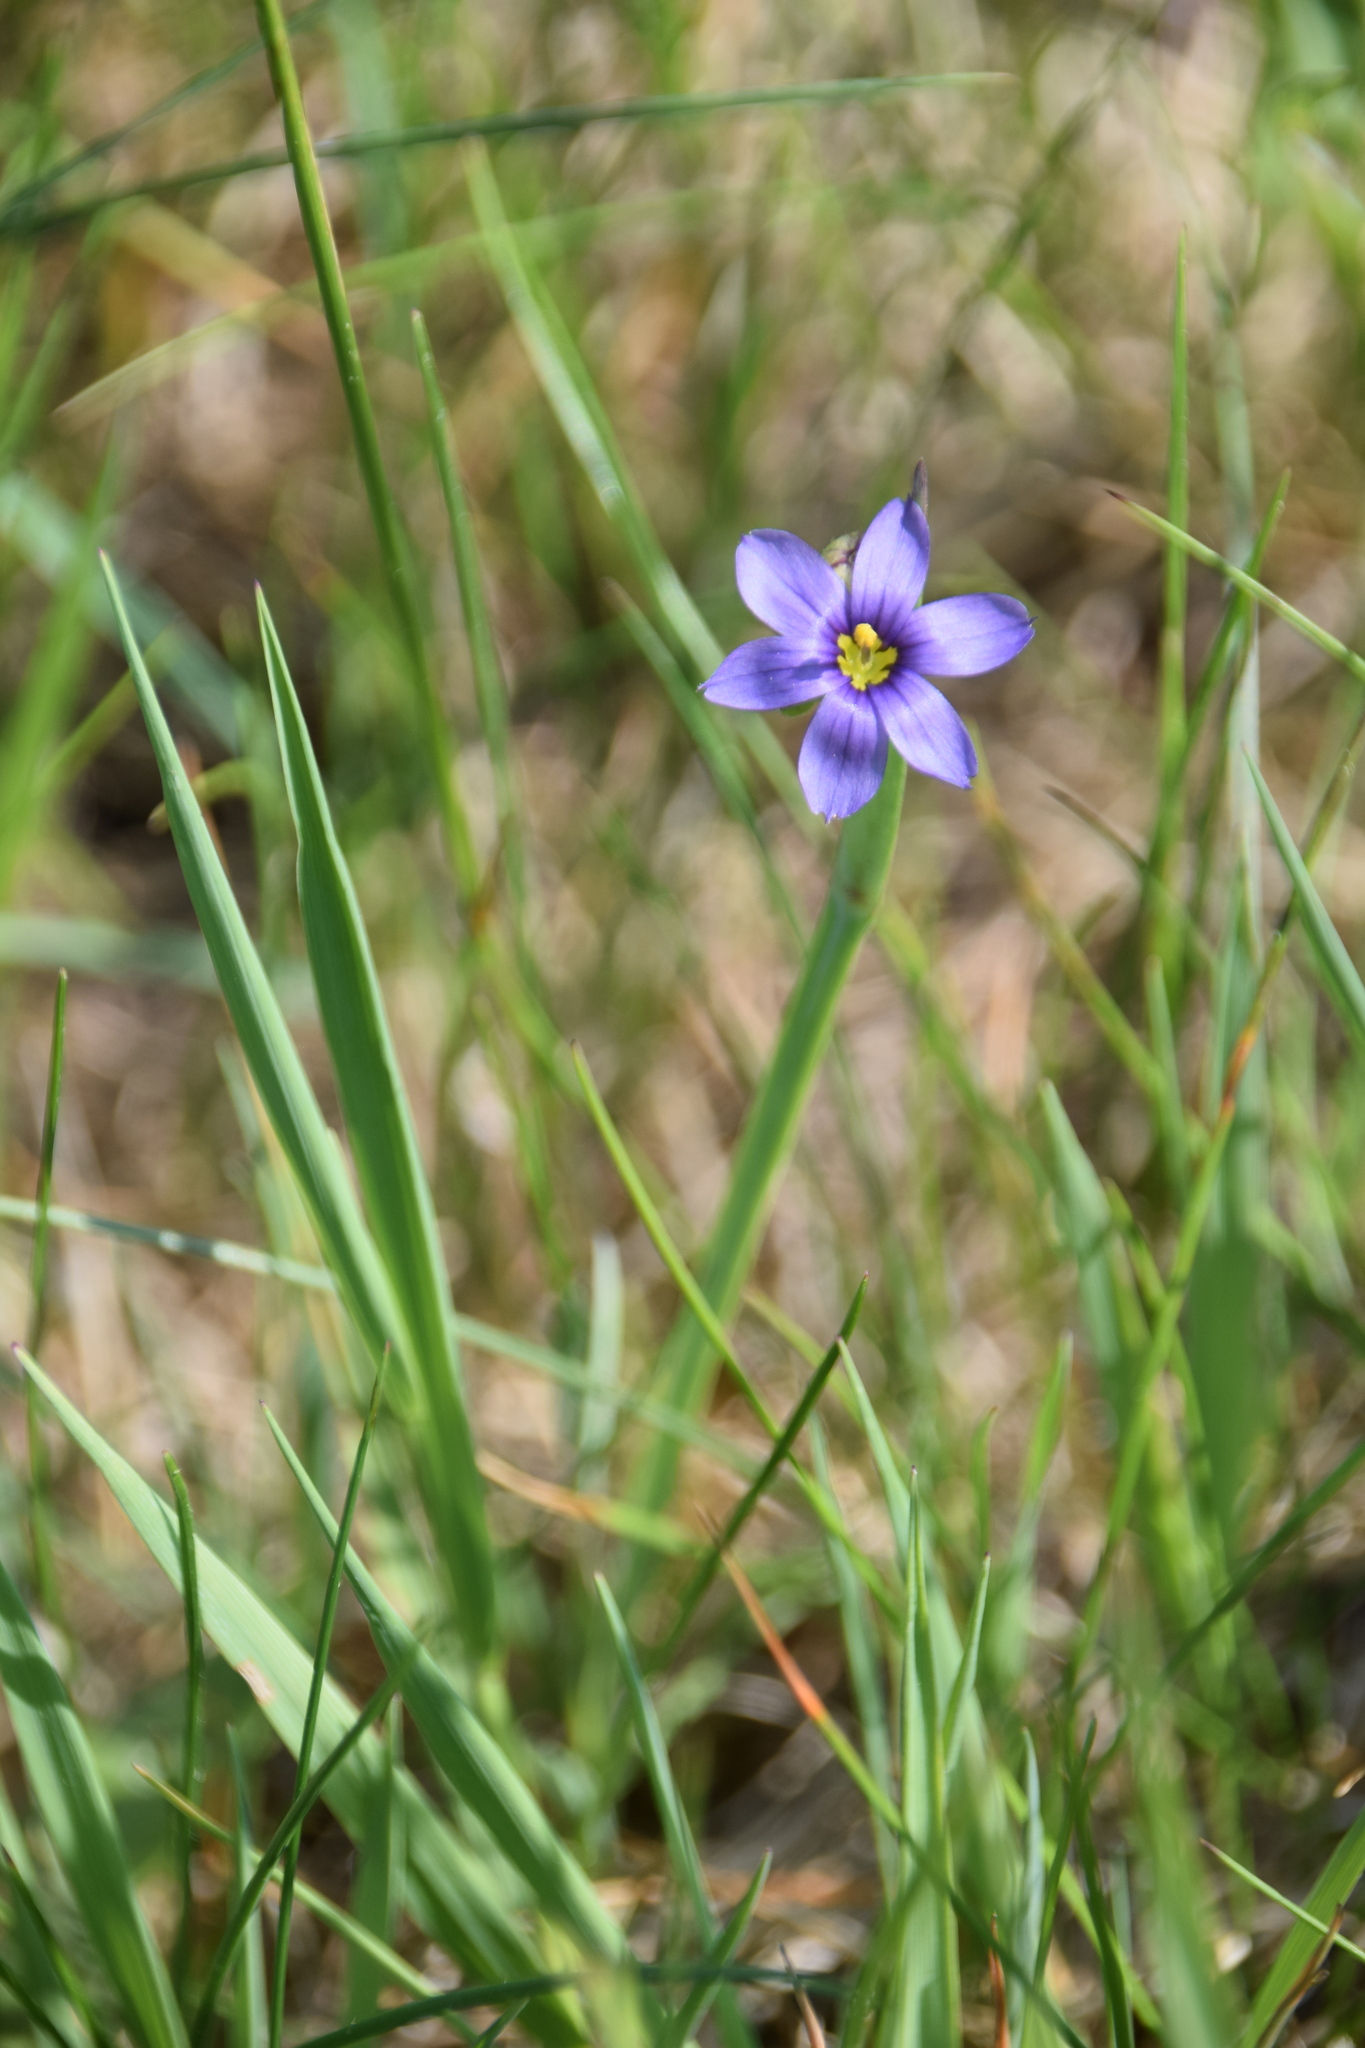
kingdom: Plantae
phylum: Tracheophyta
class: Liliopsida
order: Asparagales
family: Iridaceae
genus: Sisyrinchium
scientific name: Sisyrinchium montanum
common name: American blue-eyed-grass
